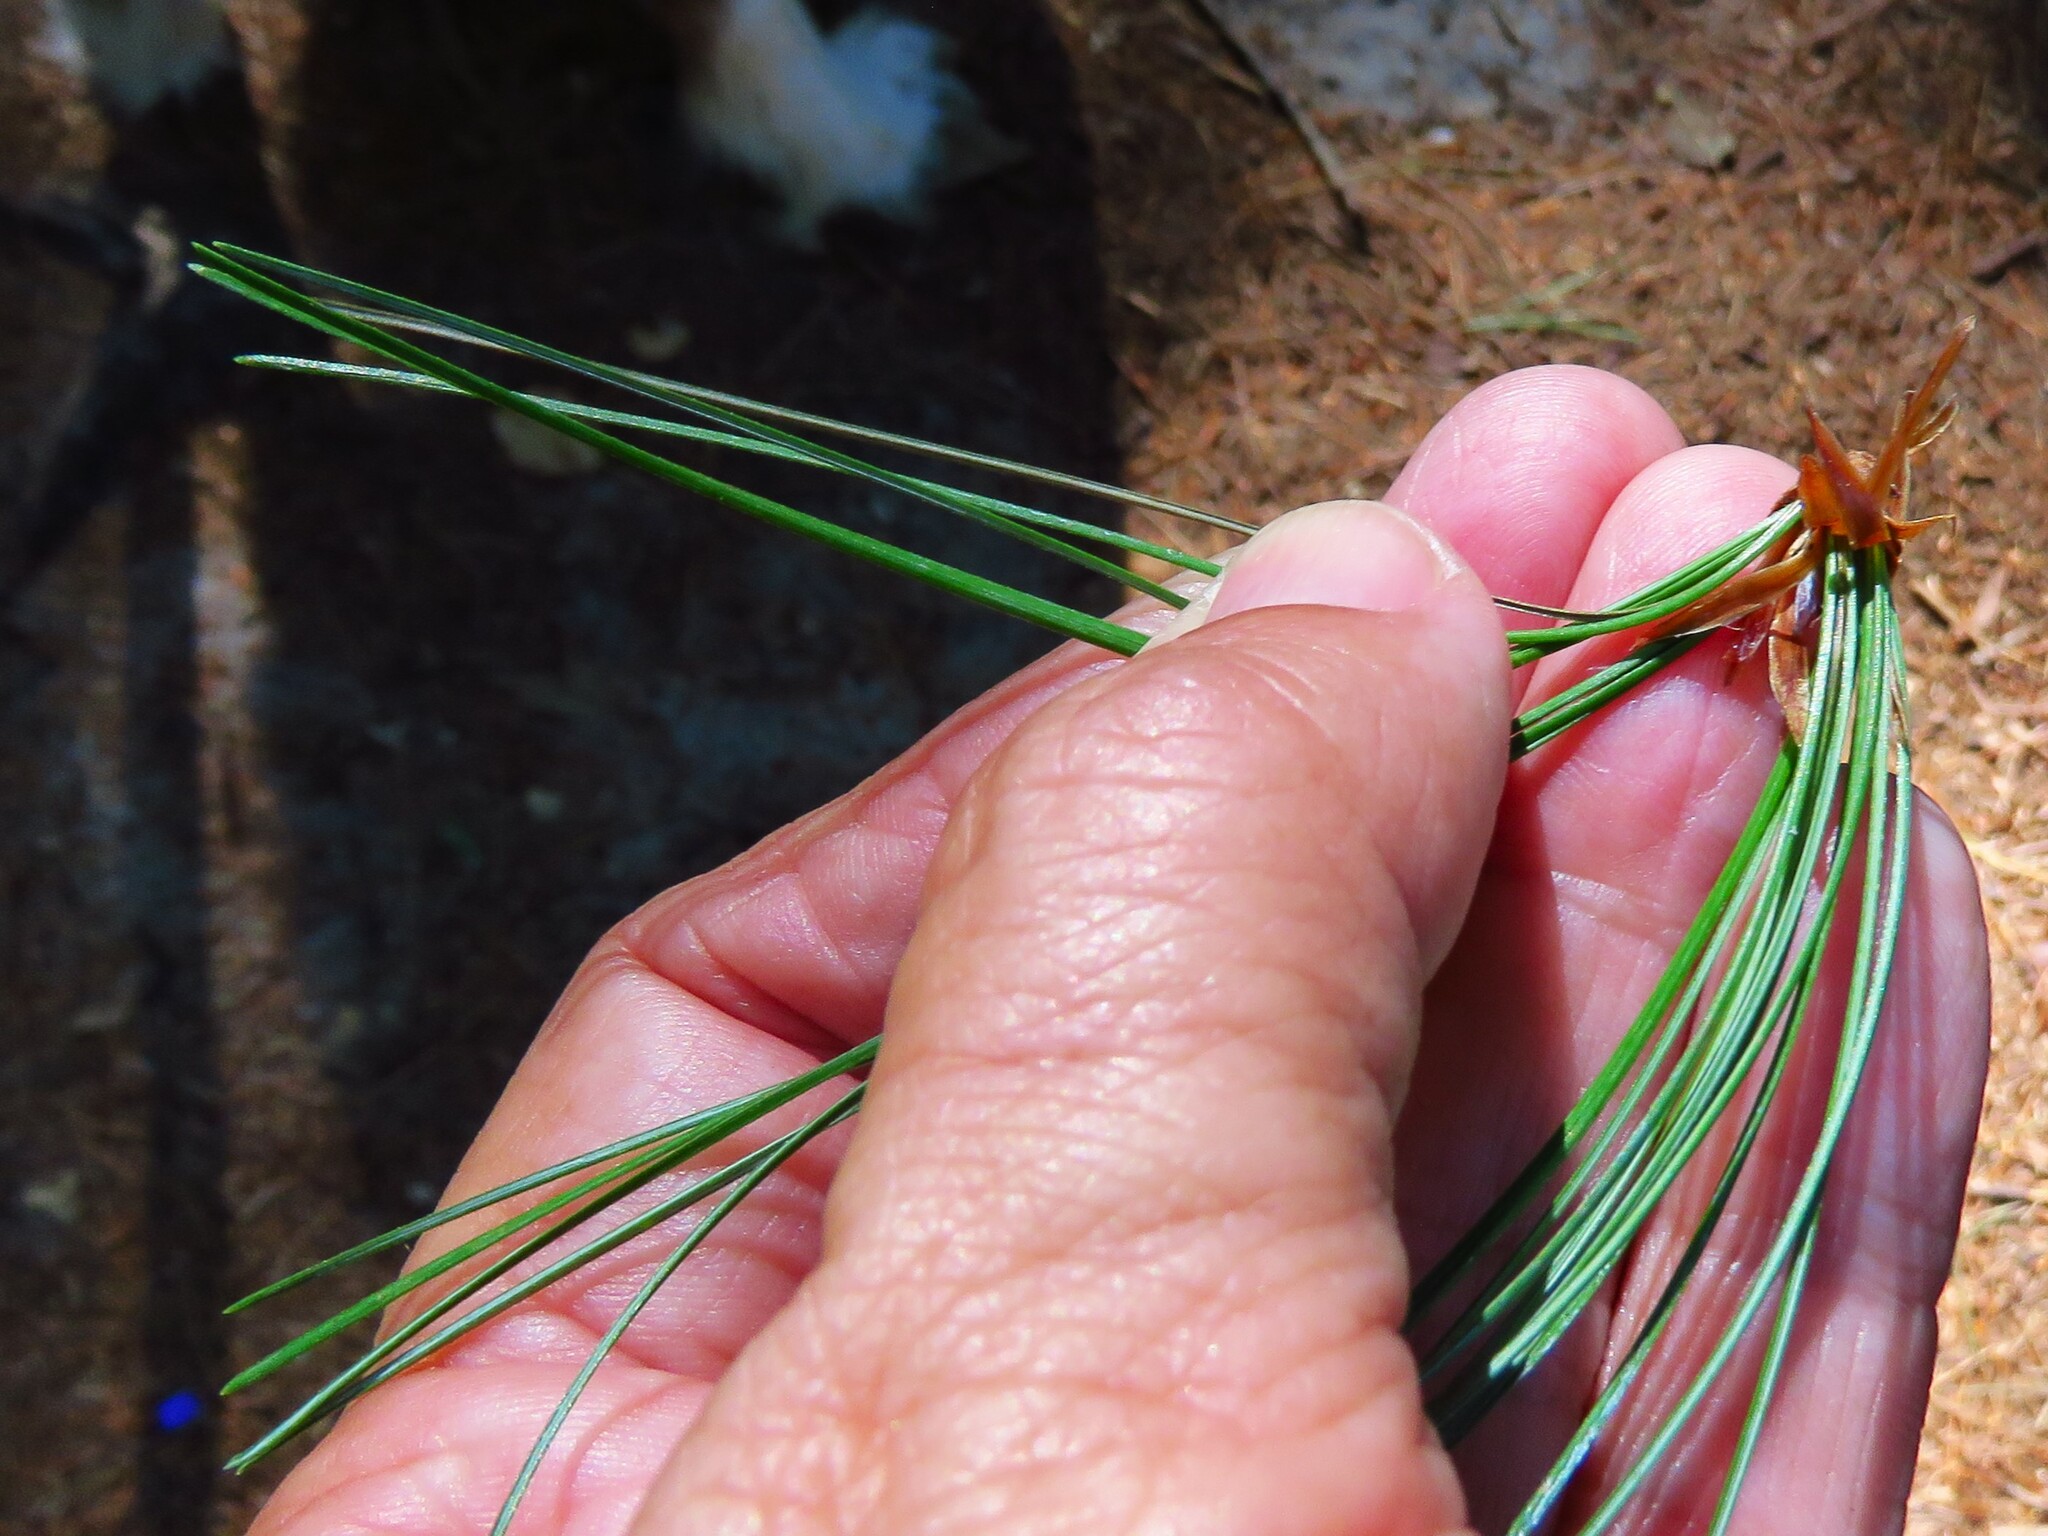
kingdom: Plantae
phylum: Tracheophyta
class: Pinopsida
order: Pinales
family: Pinaceae
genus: Pinus
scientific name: Pinus strobus
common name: Weymouth pine
